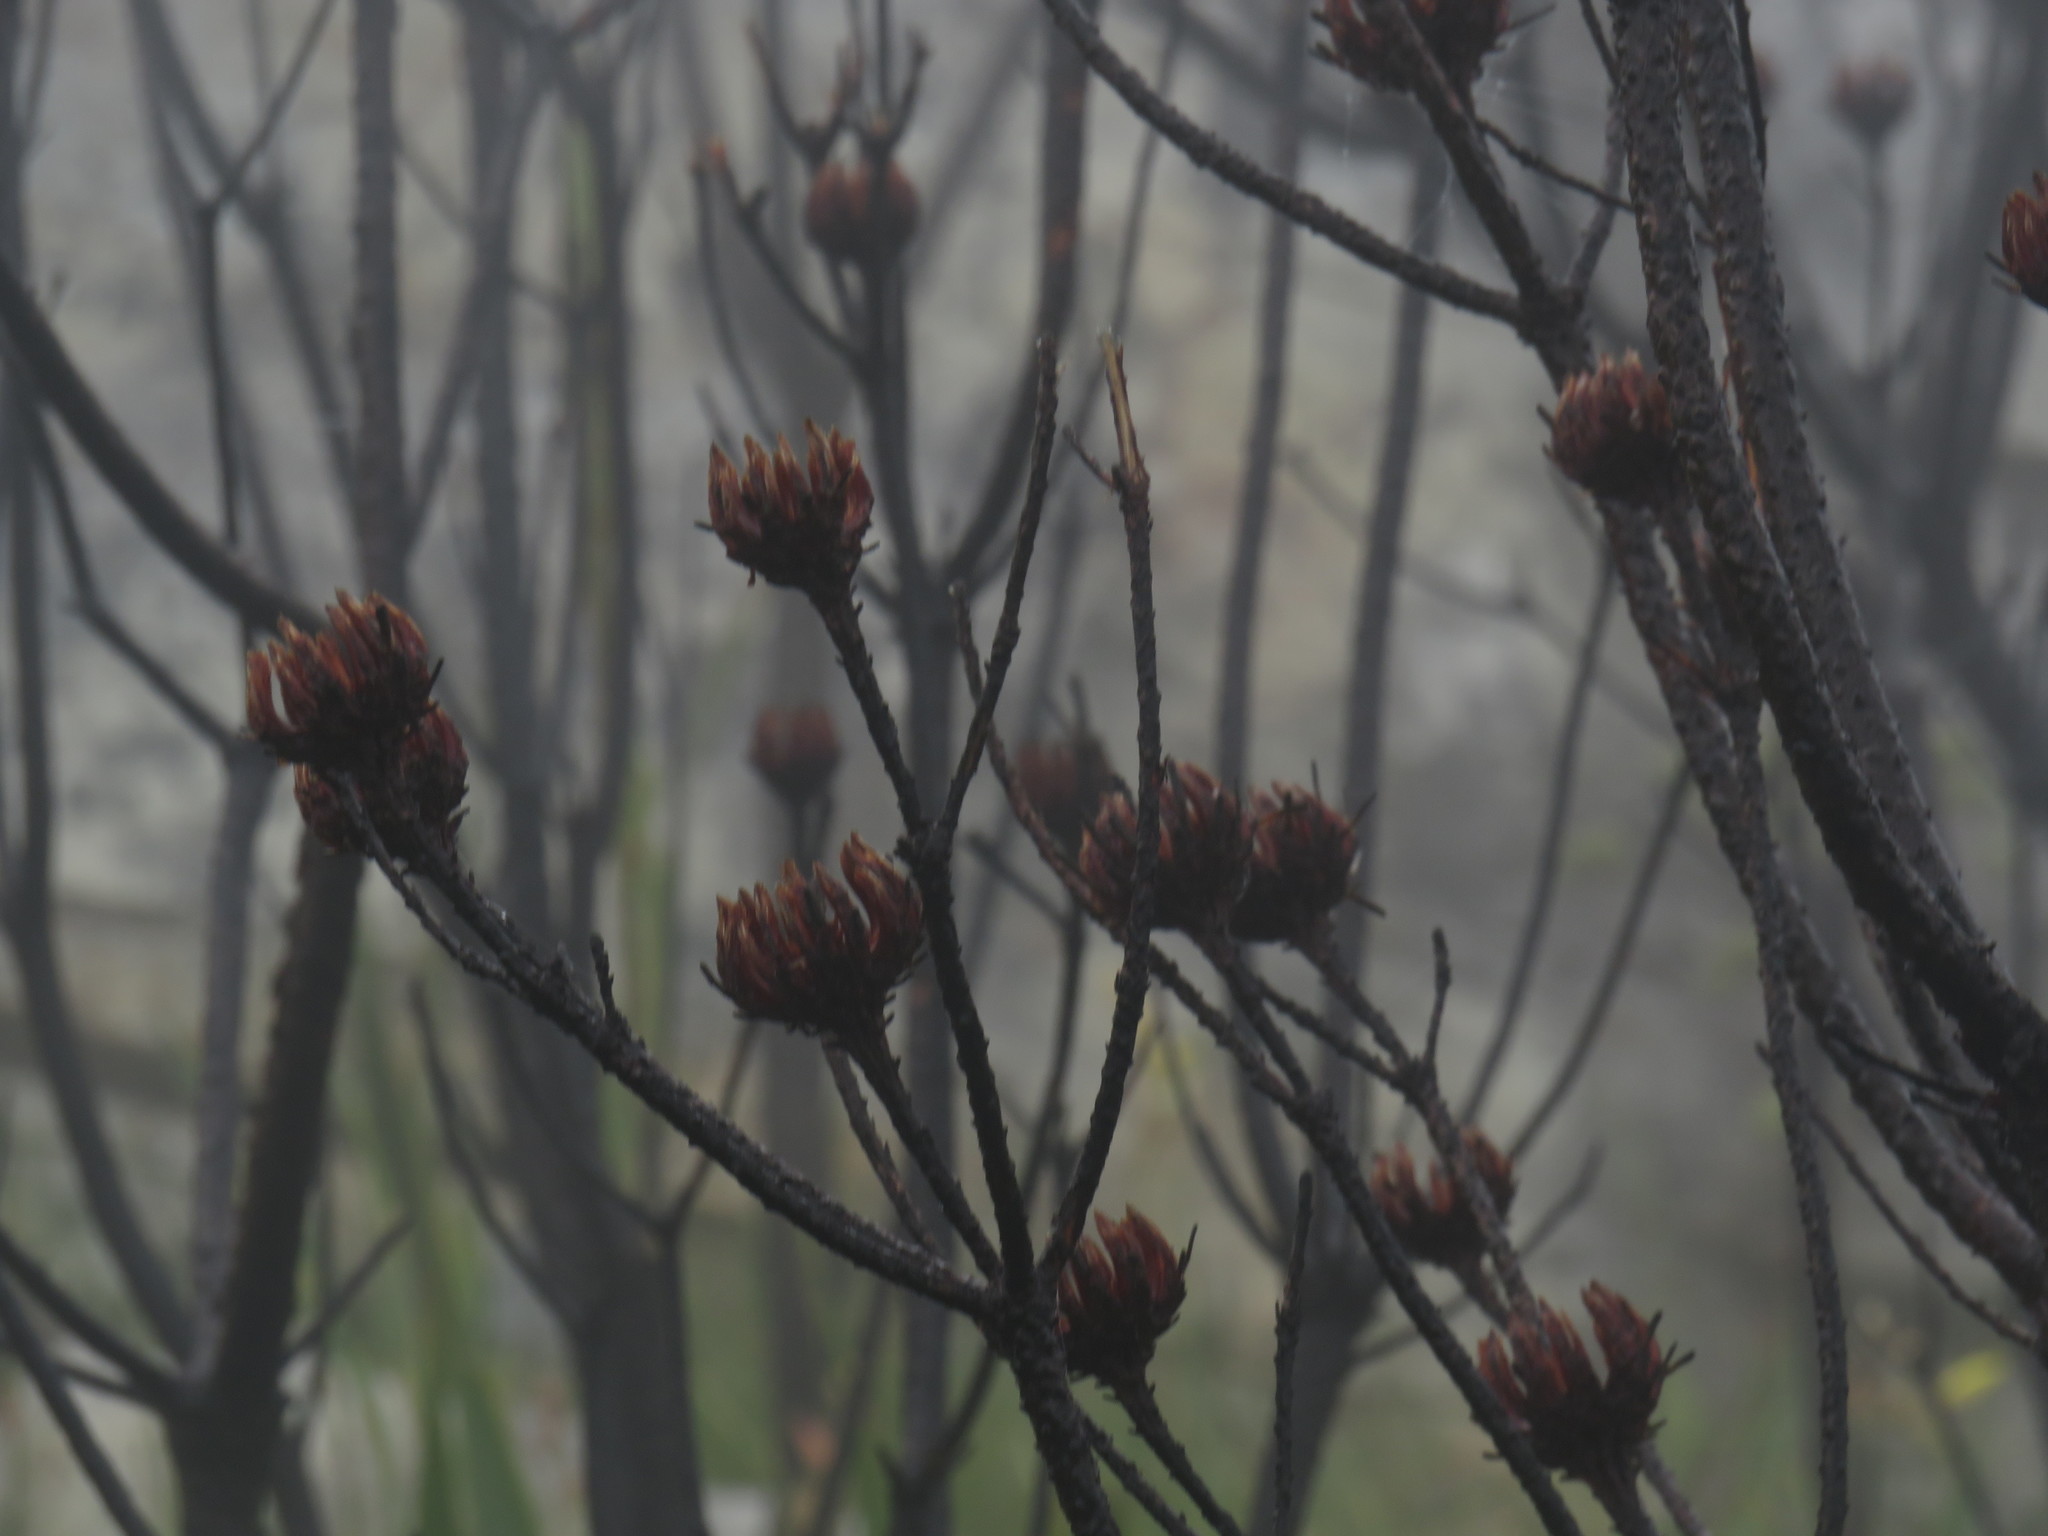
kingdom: Plantae
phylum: Tracheophyta
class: Magnoliopsida
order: Proteales
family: Proteaceae
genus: Aulax
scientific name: Aulax cancellata
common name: Channel-leaf featherbush
